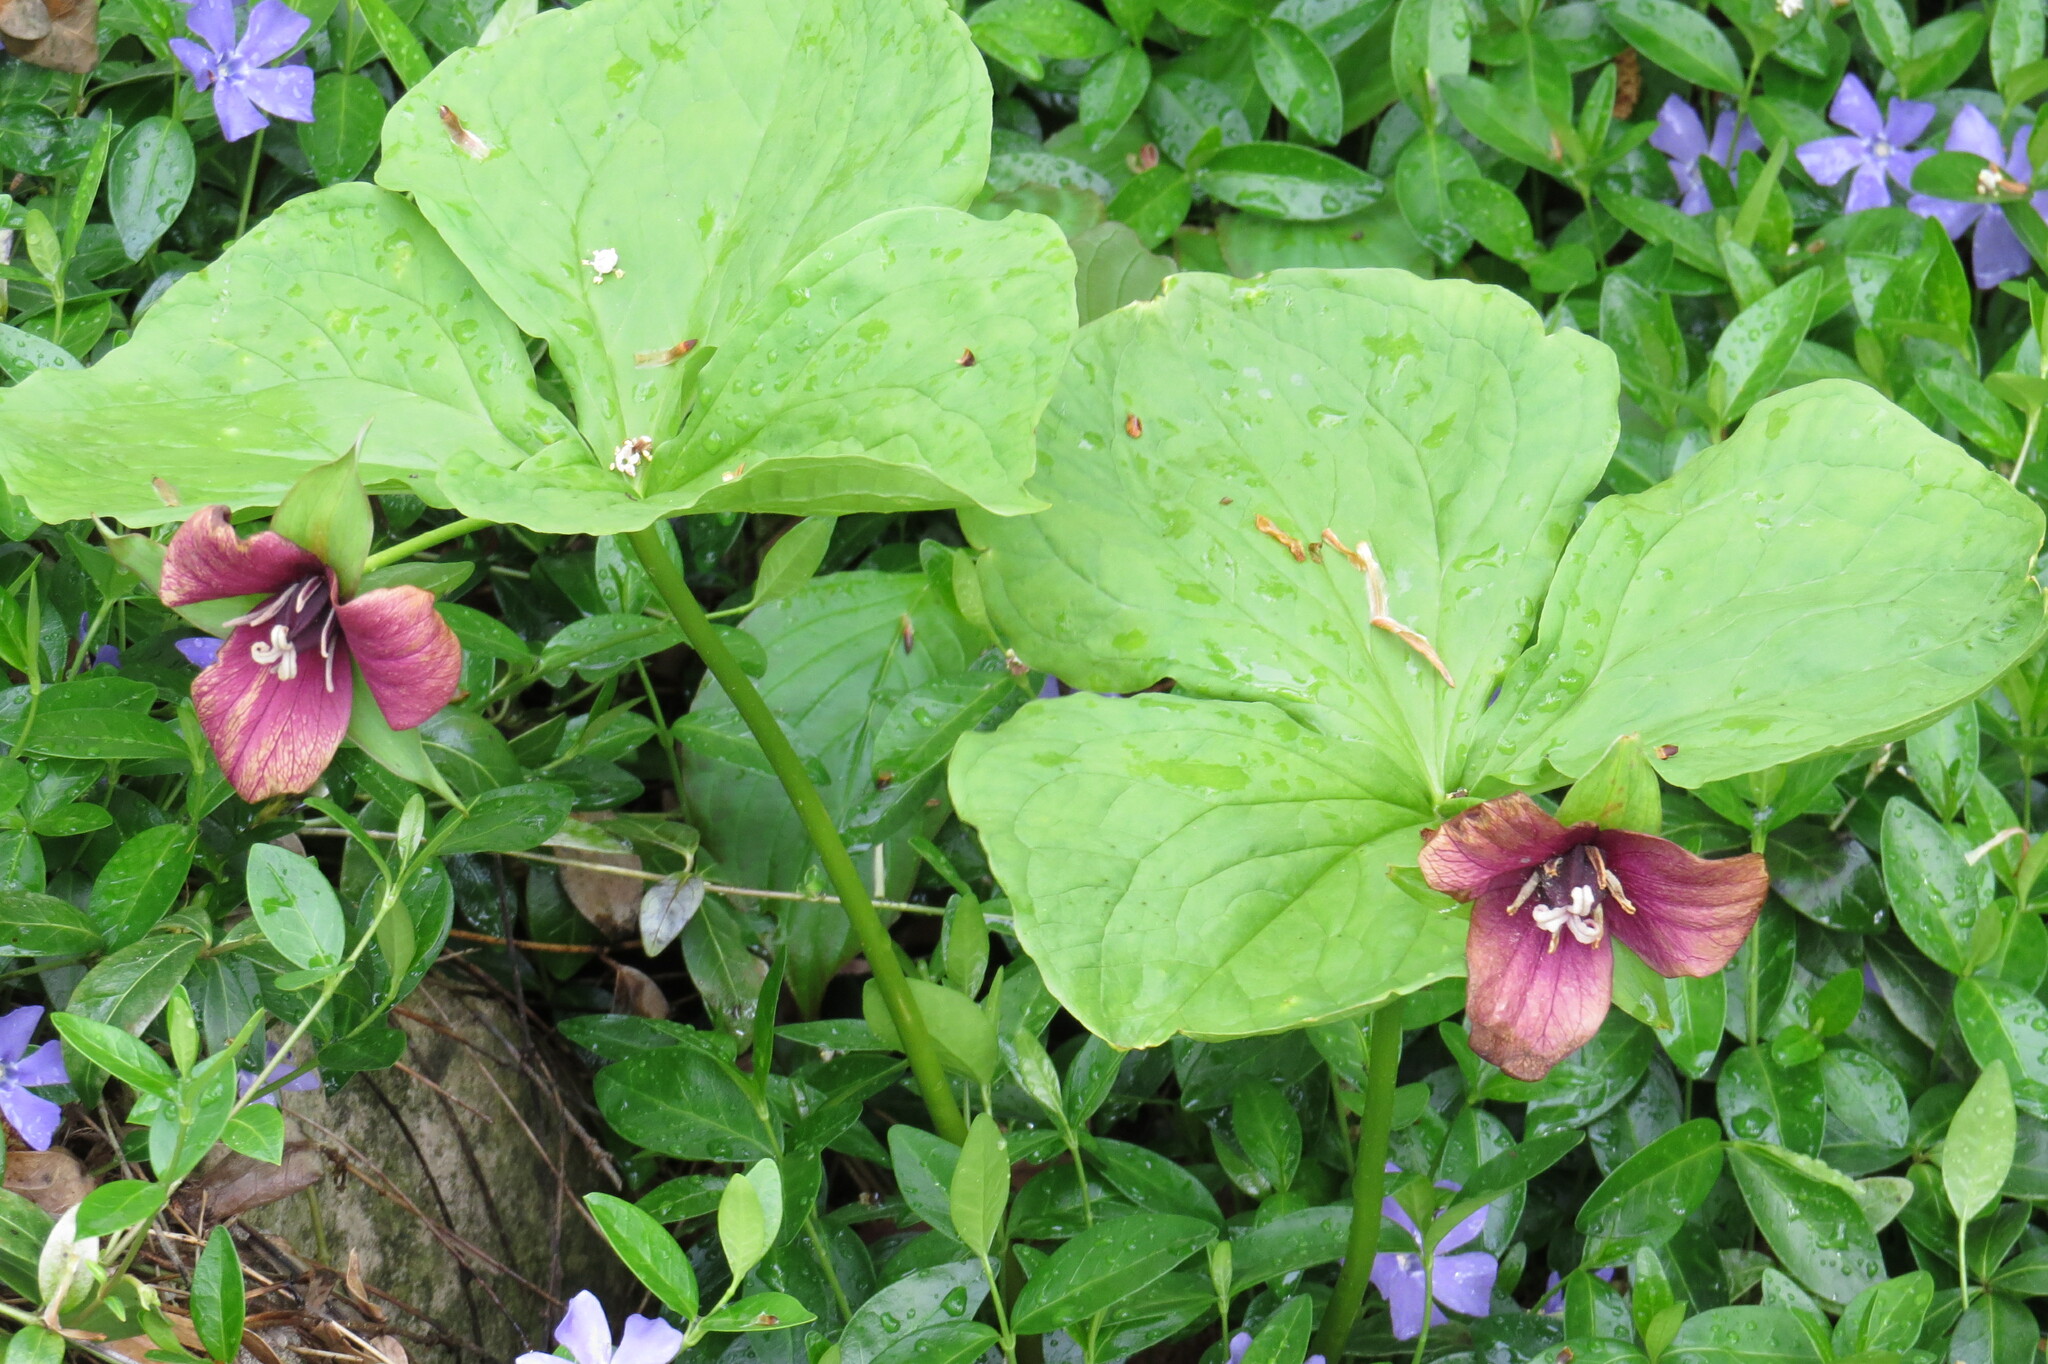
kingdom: Plantae
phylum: Tracheophyta
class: Liliopsida
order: Liliales
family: Melanthiaceae
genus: Trillium
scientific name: Trillium erectum
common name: Purple trillium
